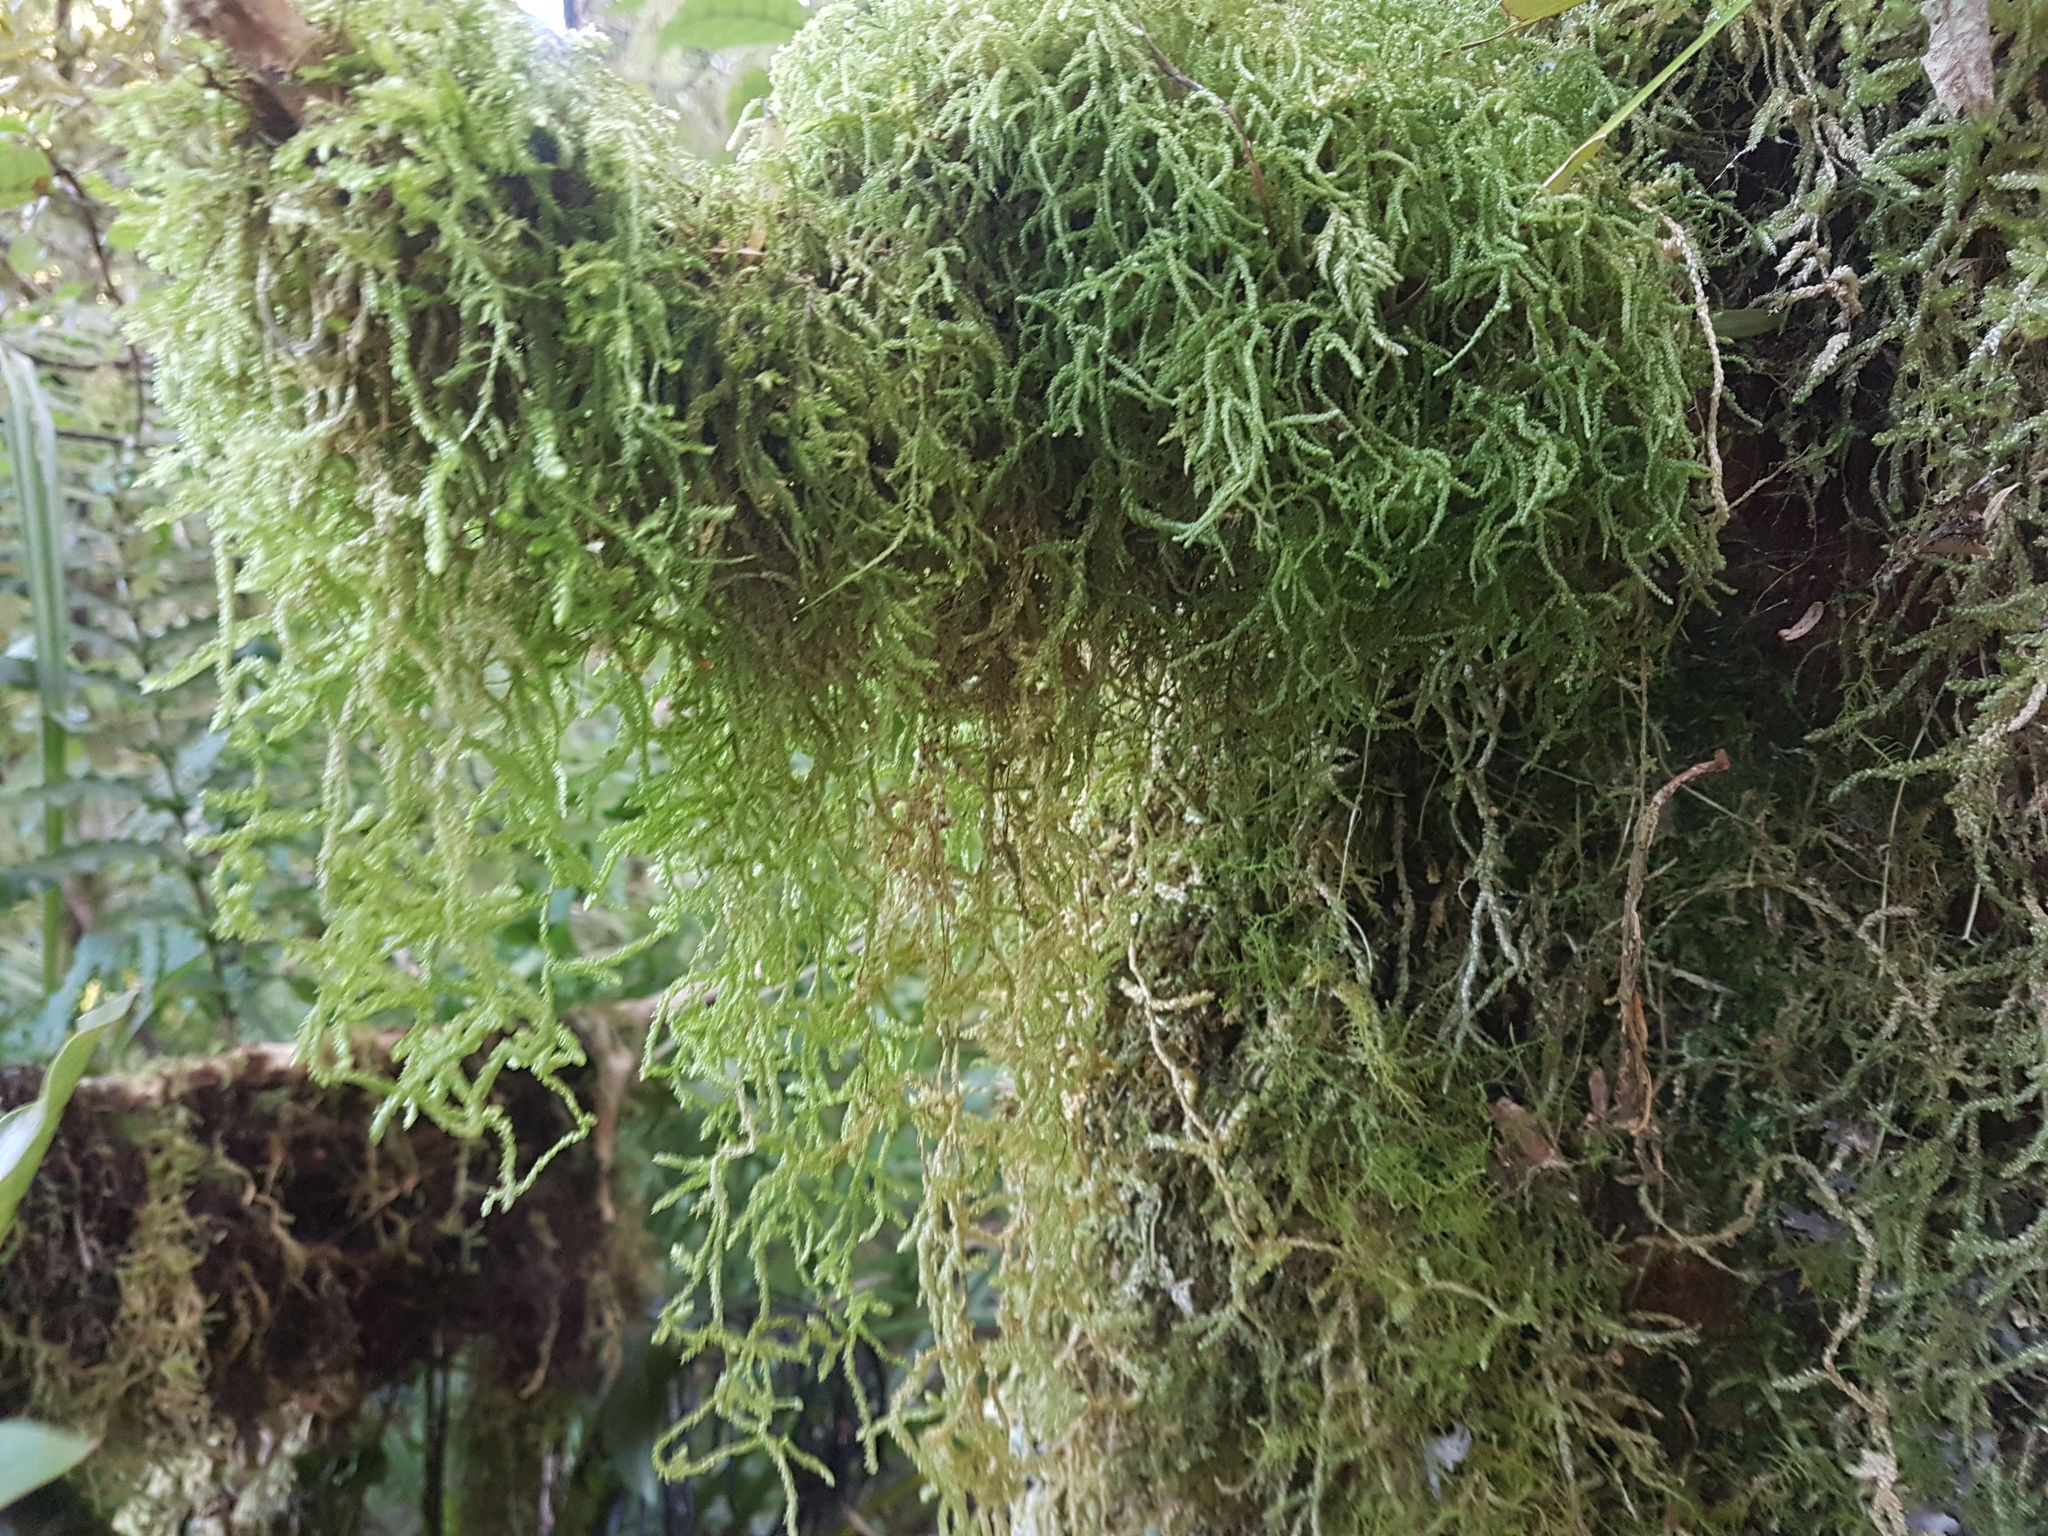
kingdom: Plantae
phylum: Bryophyta
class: Bryopsida
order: Hypnales
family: Lembophyllaceae
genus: Weymouthia
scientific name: Weymouthia cochlearifolia
